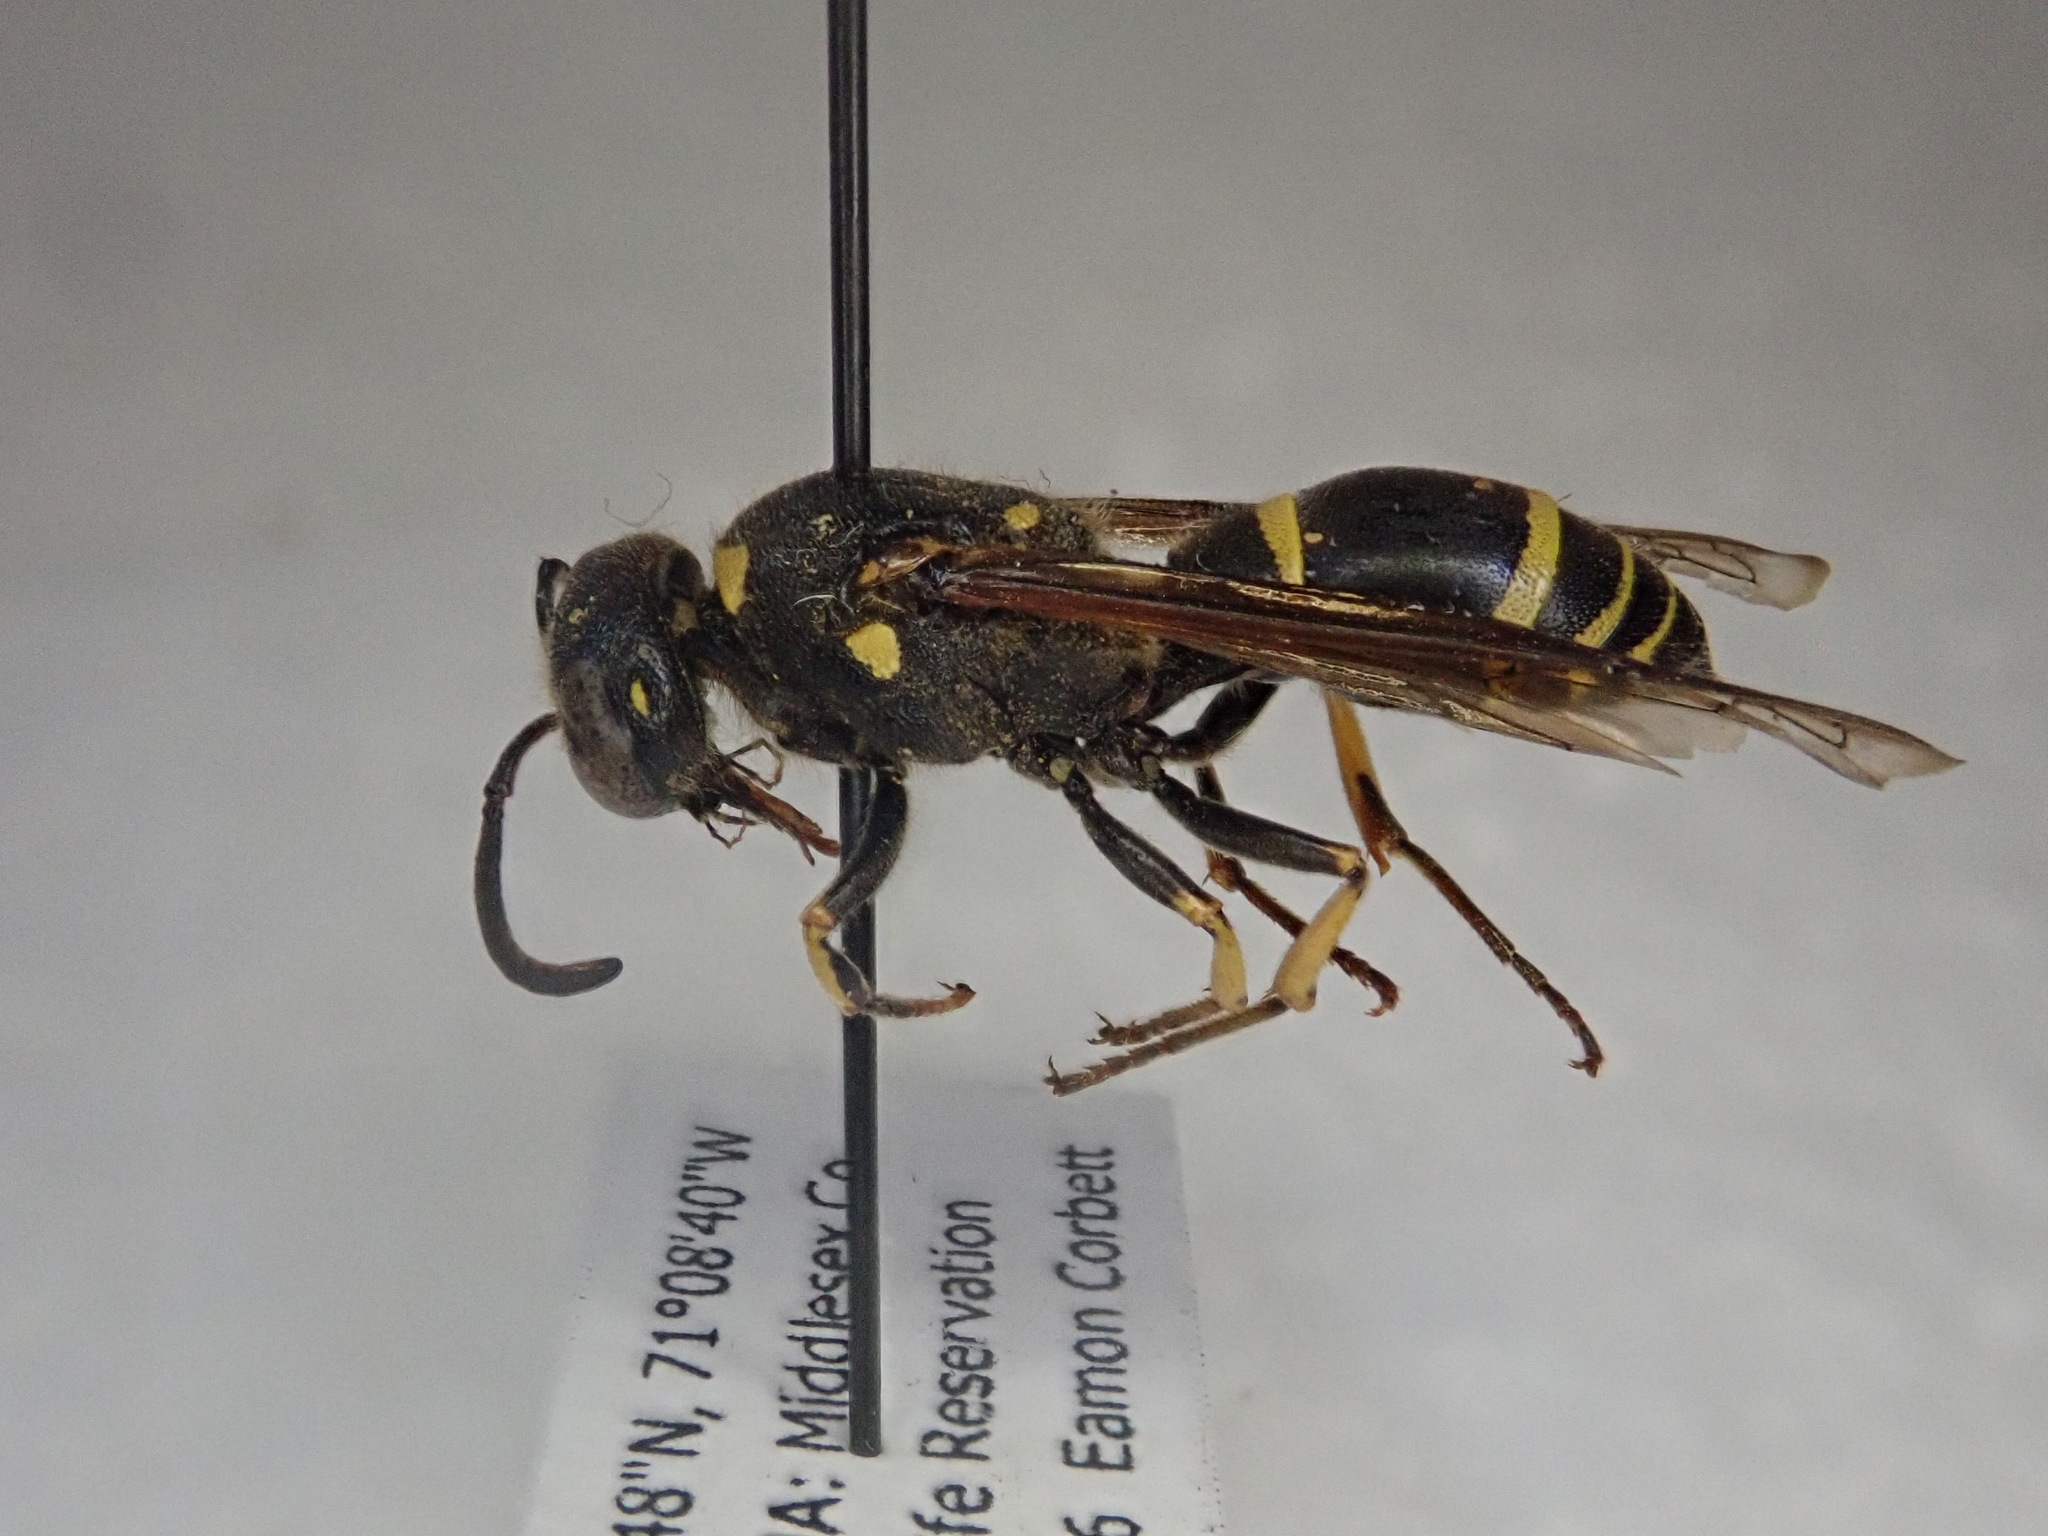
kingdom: Animalia
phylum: Arthropoda
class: Insecta
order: Hymenoptera
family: Vespidae
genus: Ancistrocerus
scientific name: Ancistrocerus
